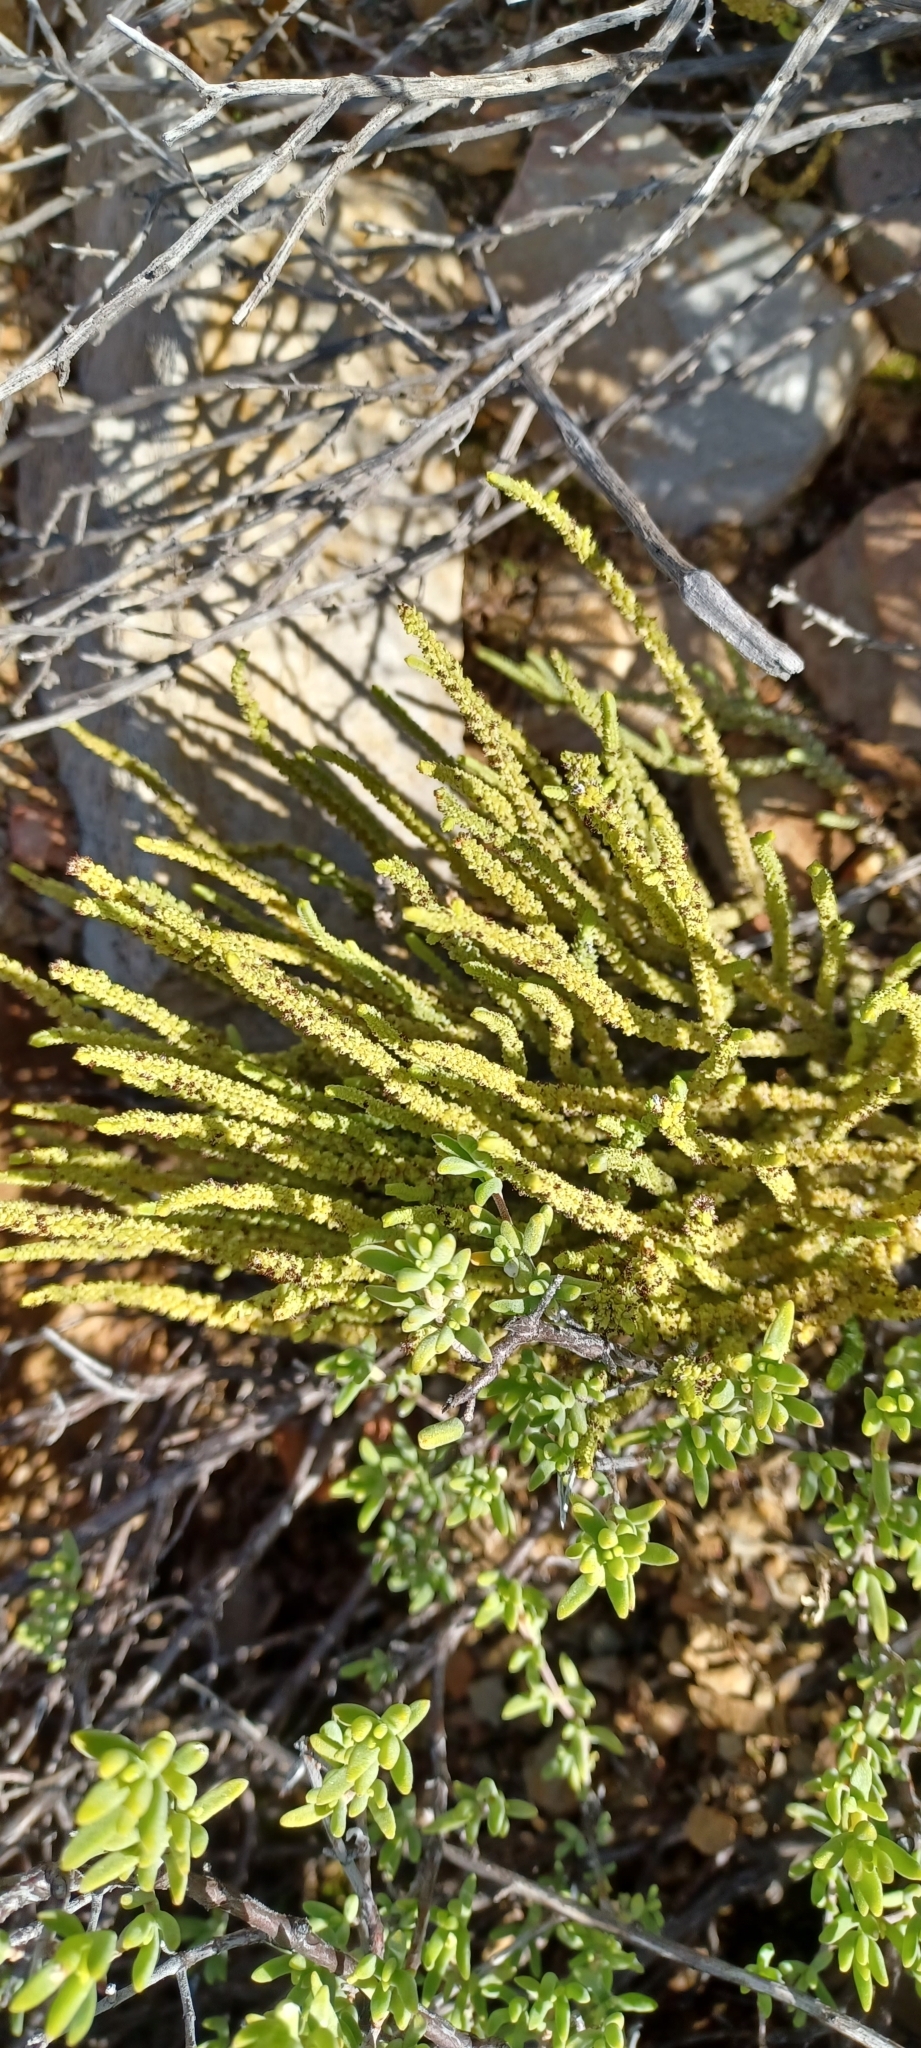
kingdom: Plantae
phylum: Tracheophyta
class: Magnoliopsida
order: Saxifragales
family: Crassulaceae
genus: Crassula
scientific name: Crassula muscosa
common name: Toy-cypress
